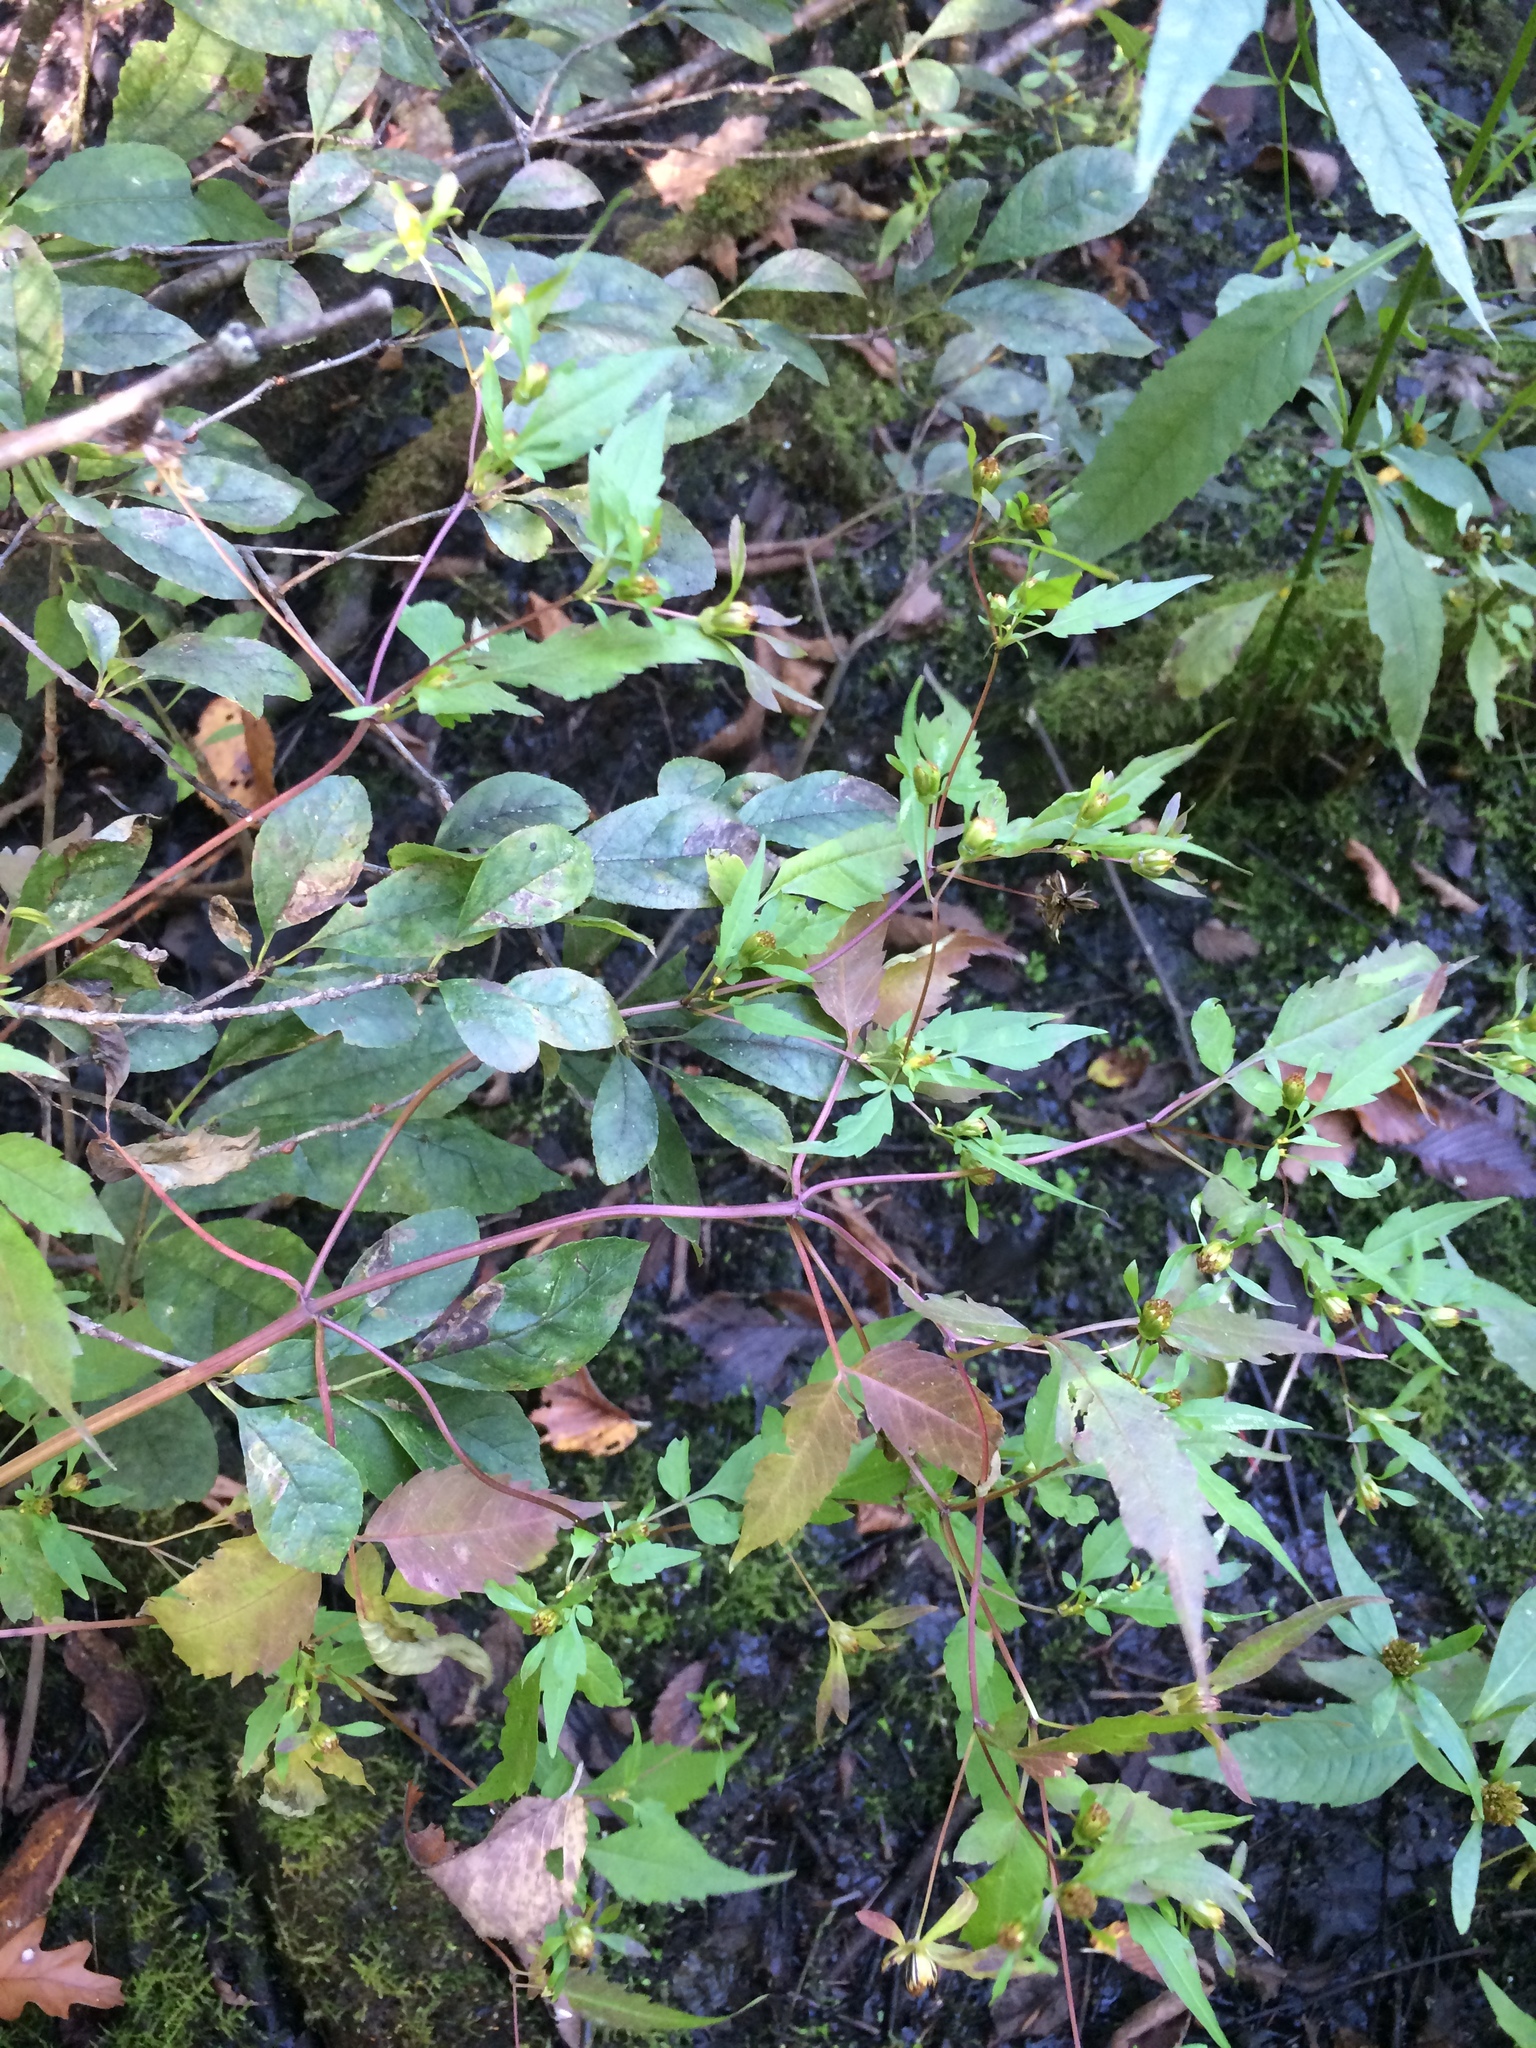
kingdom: Plantae
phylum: Tracheophyta
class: Magnoliopsida
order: Asterales
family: Asteraceae
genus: Bidens
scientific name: Bidens discoidea
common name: Discoide beggarticks
